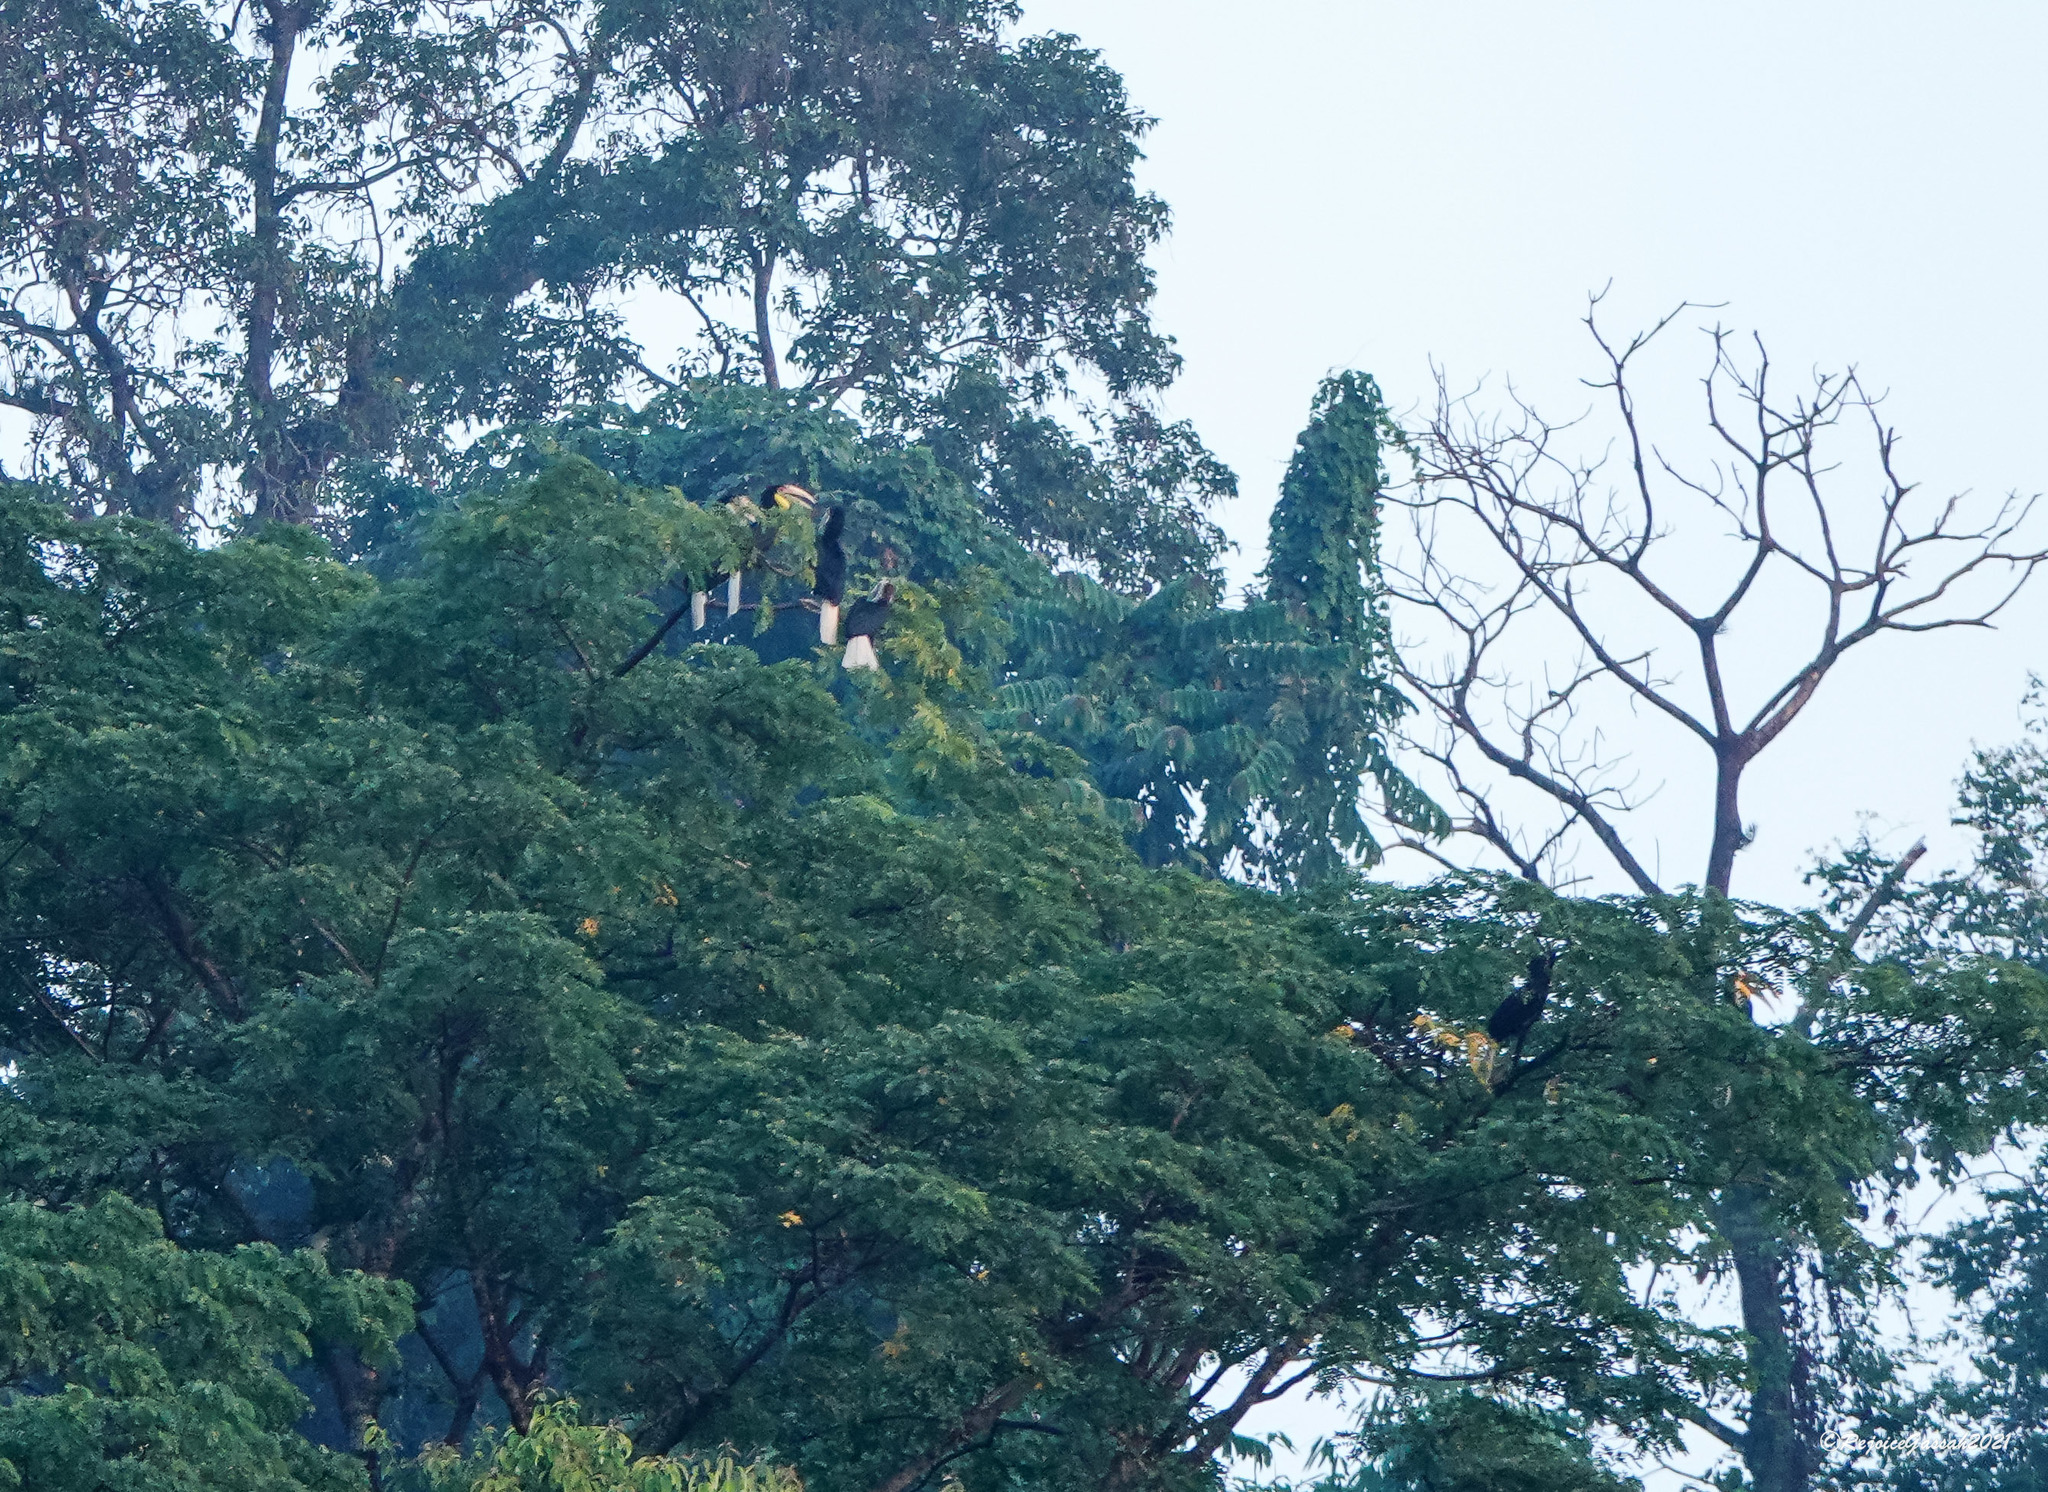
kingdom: Animalia
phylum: Chordata
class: Aves
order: Bucerotiformes
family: Bucerotidae
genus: Rhyticeros
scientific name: Rhyticeros undulatus
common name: Wreathed hornbill
